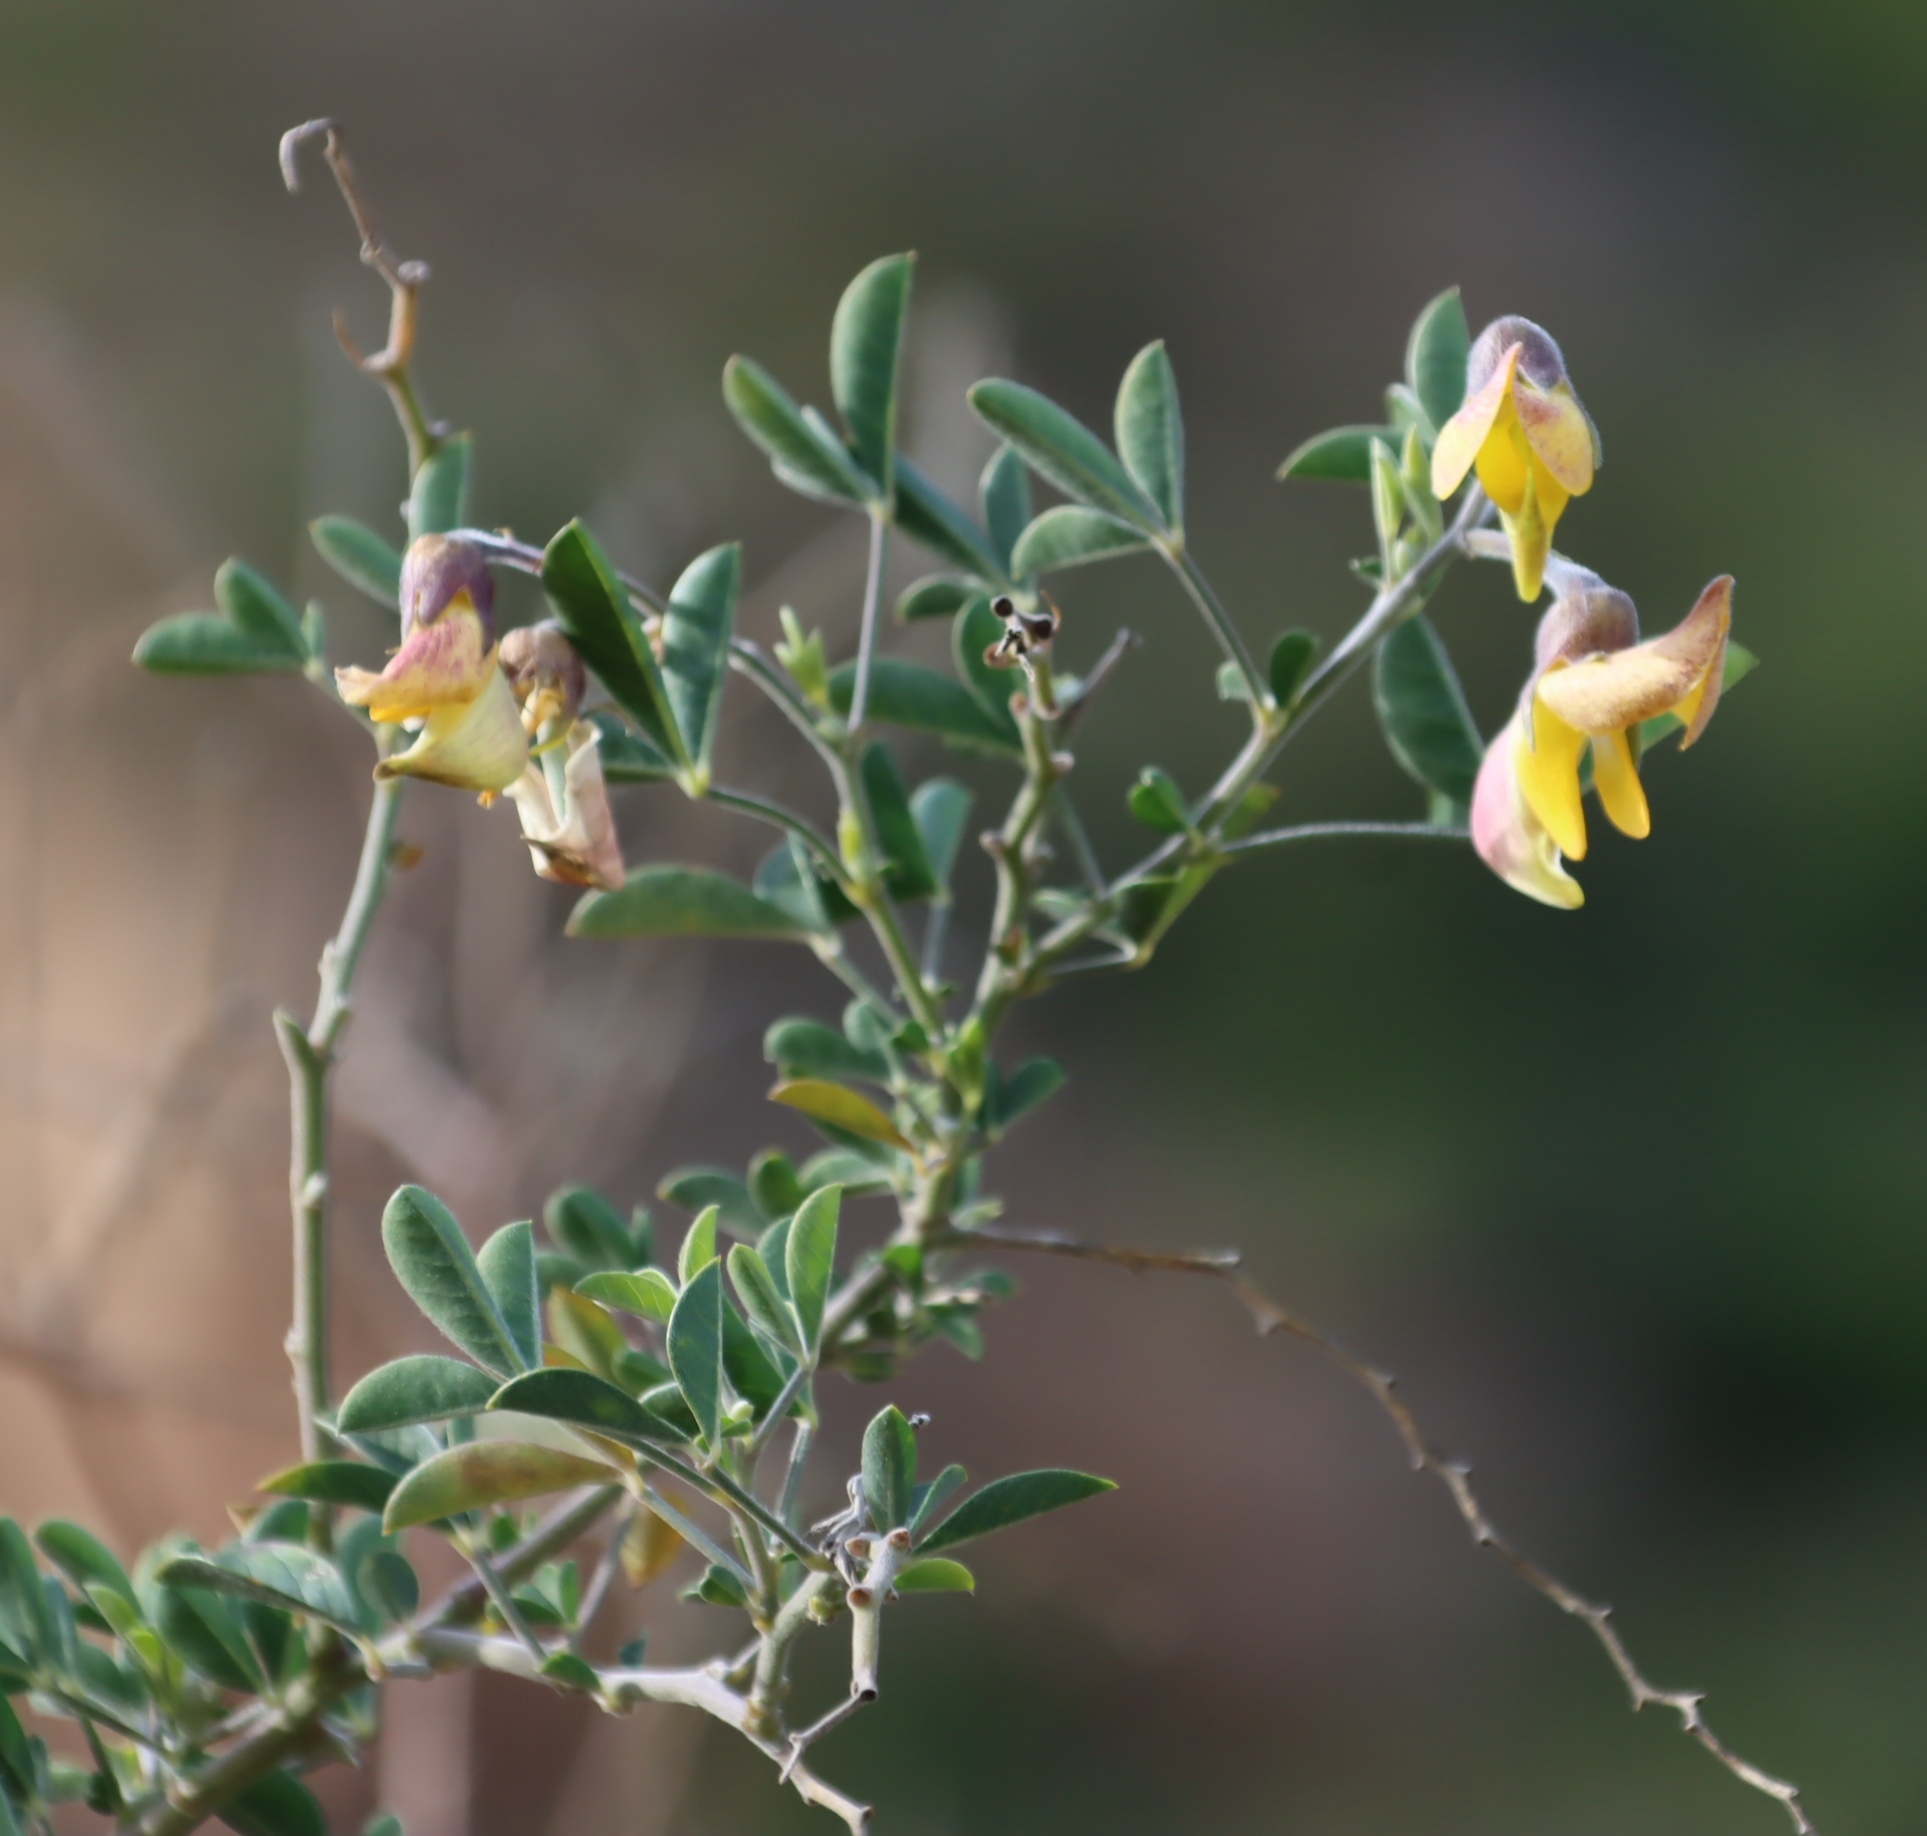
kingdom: Plantae
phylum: Tracheophyta
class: Magnoliopsida
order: Fabales
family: Fabaceae
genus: Crotalaria
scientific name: Crotalaria capensis
